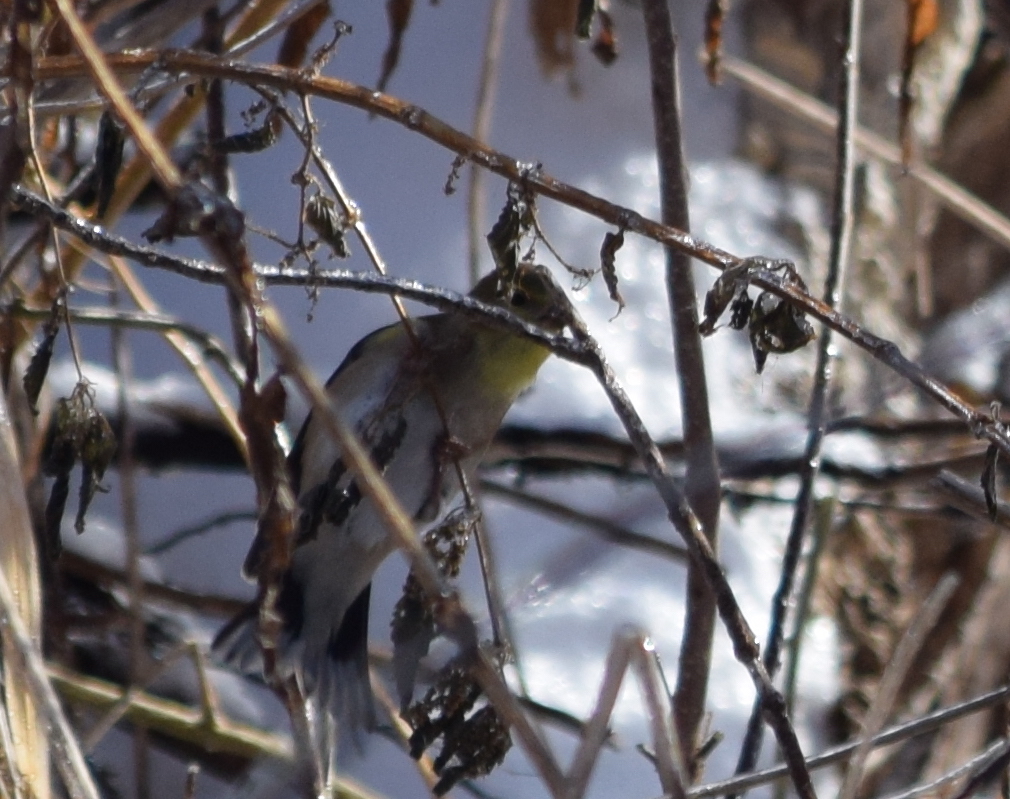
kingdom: Animalia
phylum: Chordata
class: Aves
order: Passeriformes
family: Fringillidae
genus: Spinus
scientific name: Spinus tristis
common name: American goldfinch
